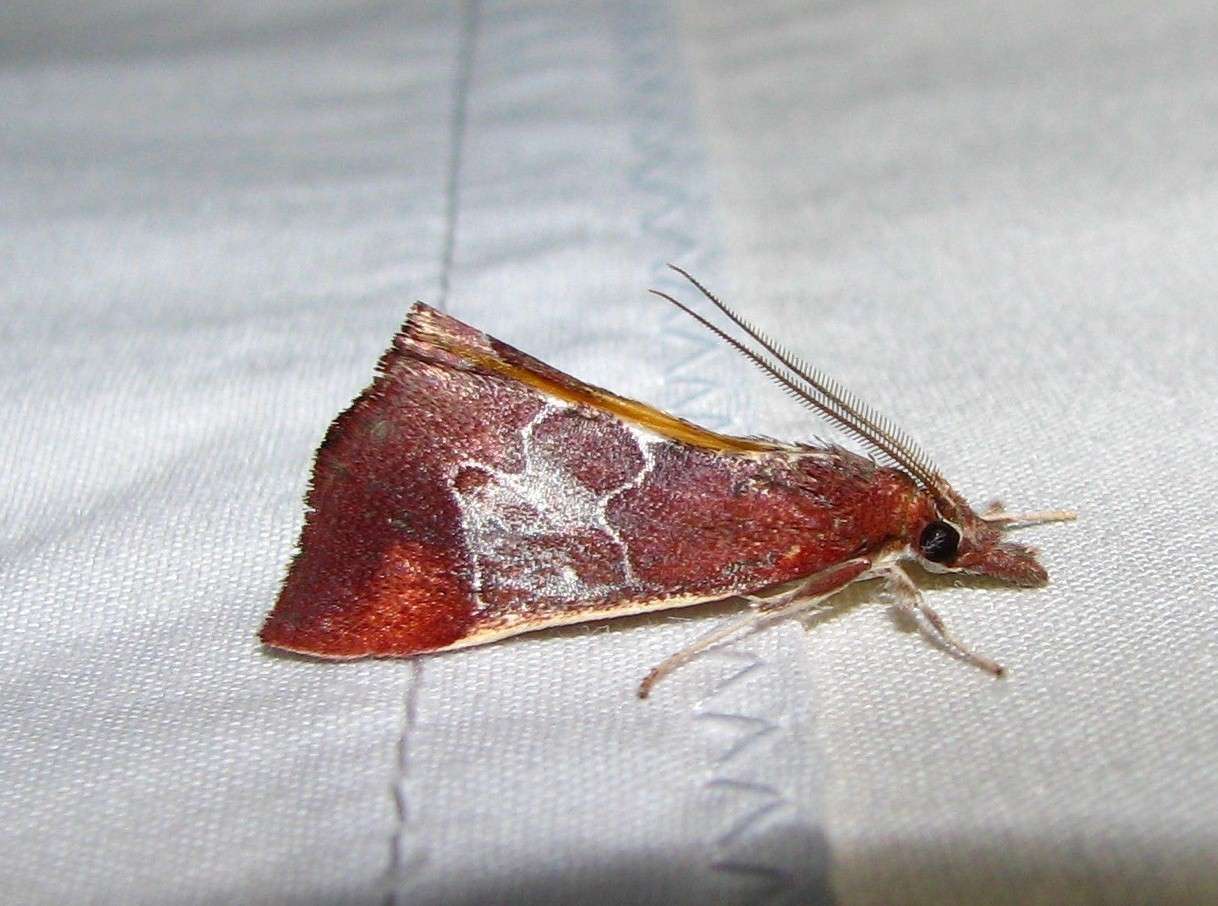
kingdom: Animalia
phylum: Arthropoda
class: Insecta
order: Lepidoptera
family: Pyralidae
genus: Anemosa
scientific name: Anemosa exanthes
